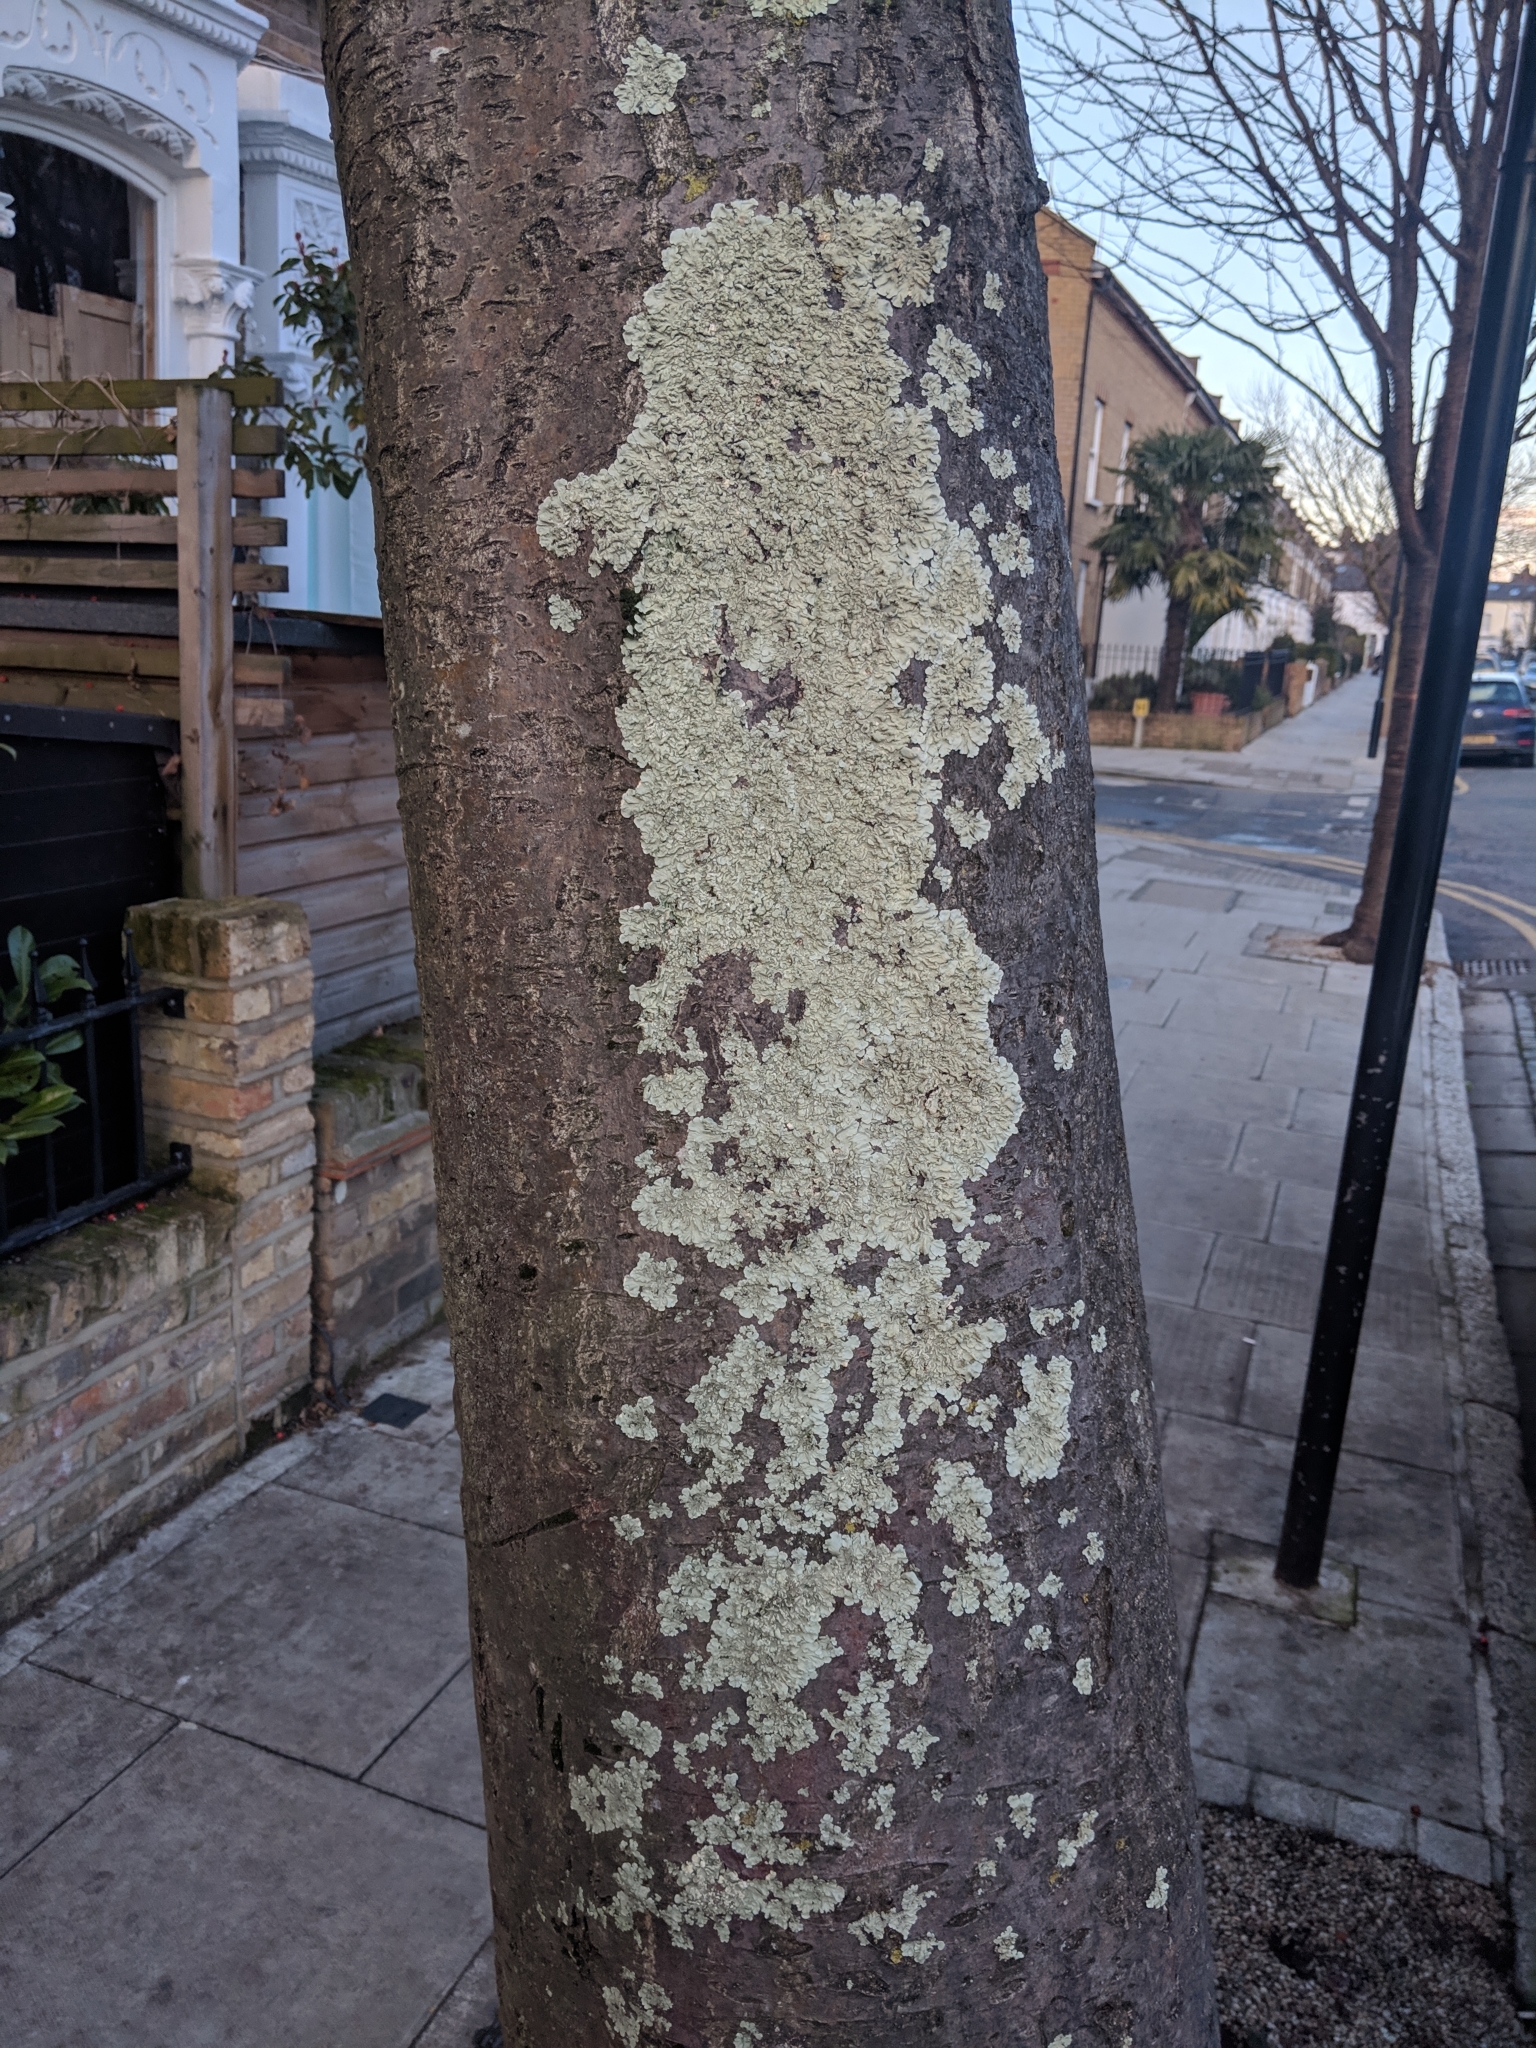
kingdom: Fungi
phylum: Ascomycota
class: Lecanoromycetes
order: Lecanorales
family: Parmeliaceae
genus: Flavoparmelia
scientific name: Flavoparmelia caperata
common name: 40-mile per hour lichen
